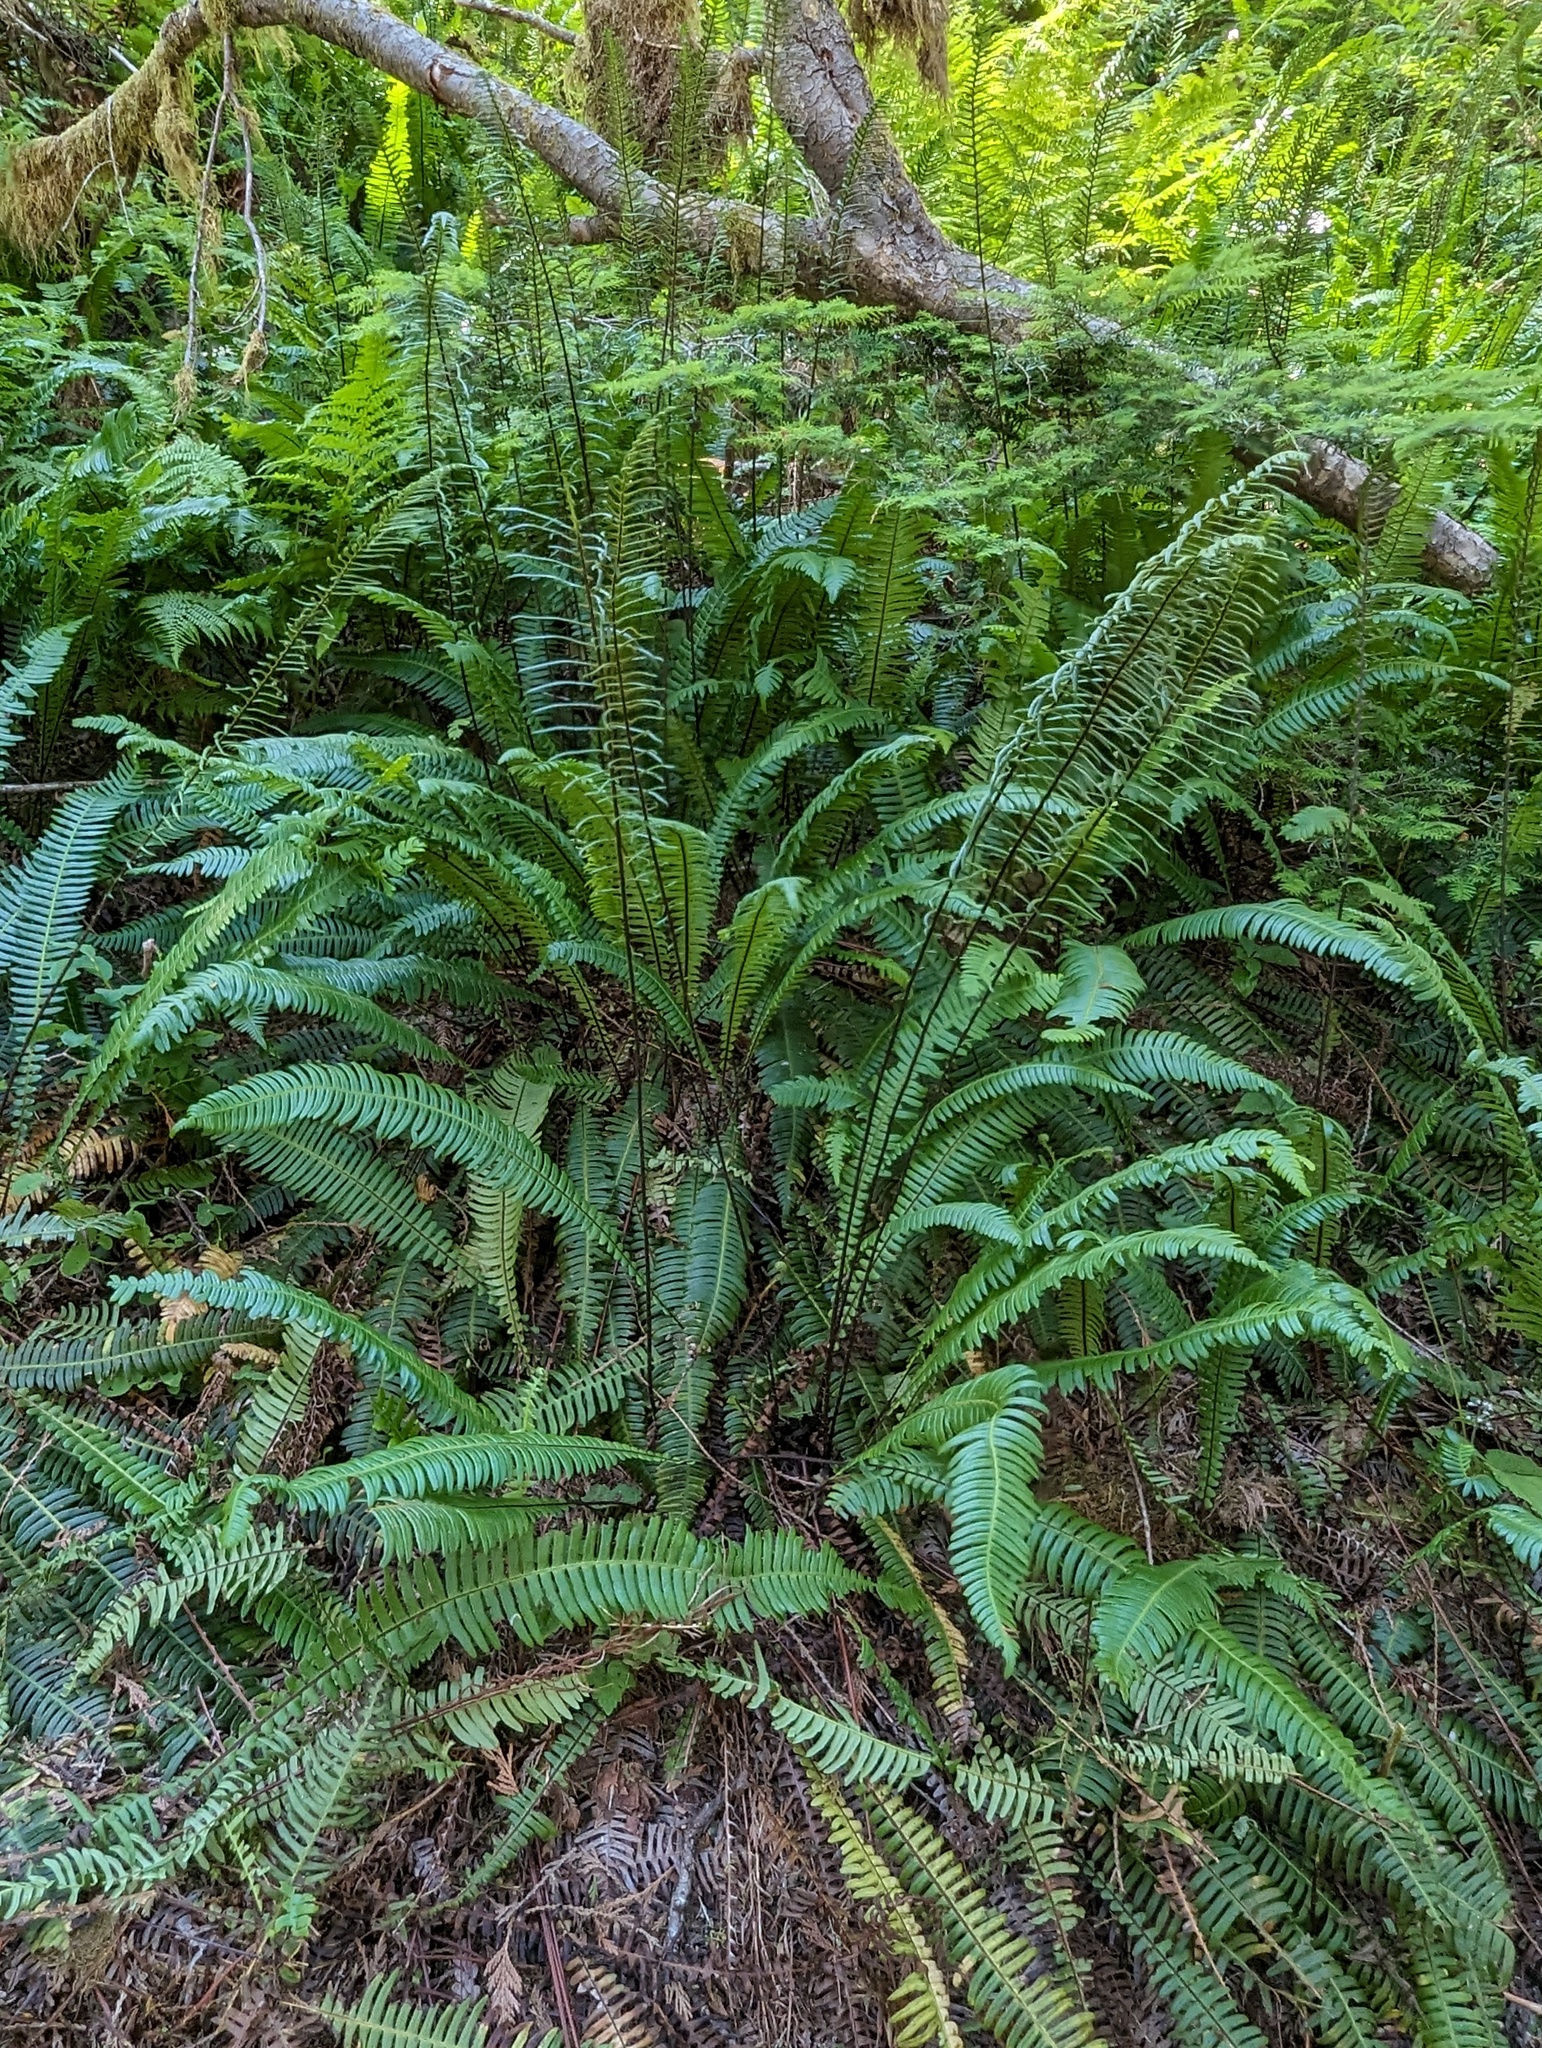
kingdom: Plantae
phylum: Tracheophyta
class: Polypodiopsida
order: Polypodiales
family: Blechnaceae
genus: Struthiopteris
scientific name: Struthiopteris spicant
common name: Deer fern
